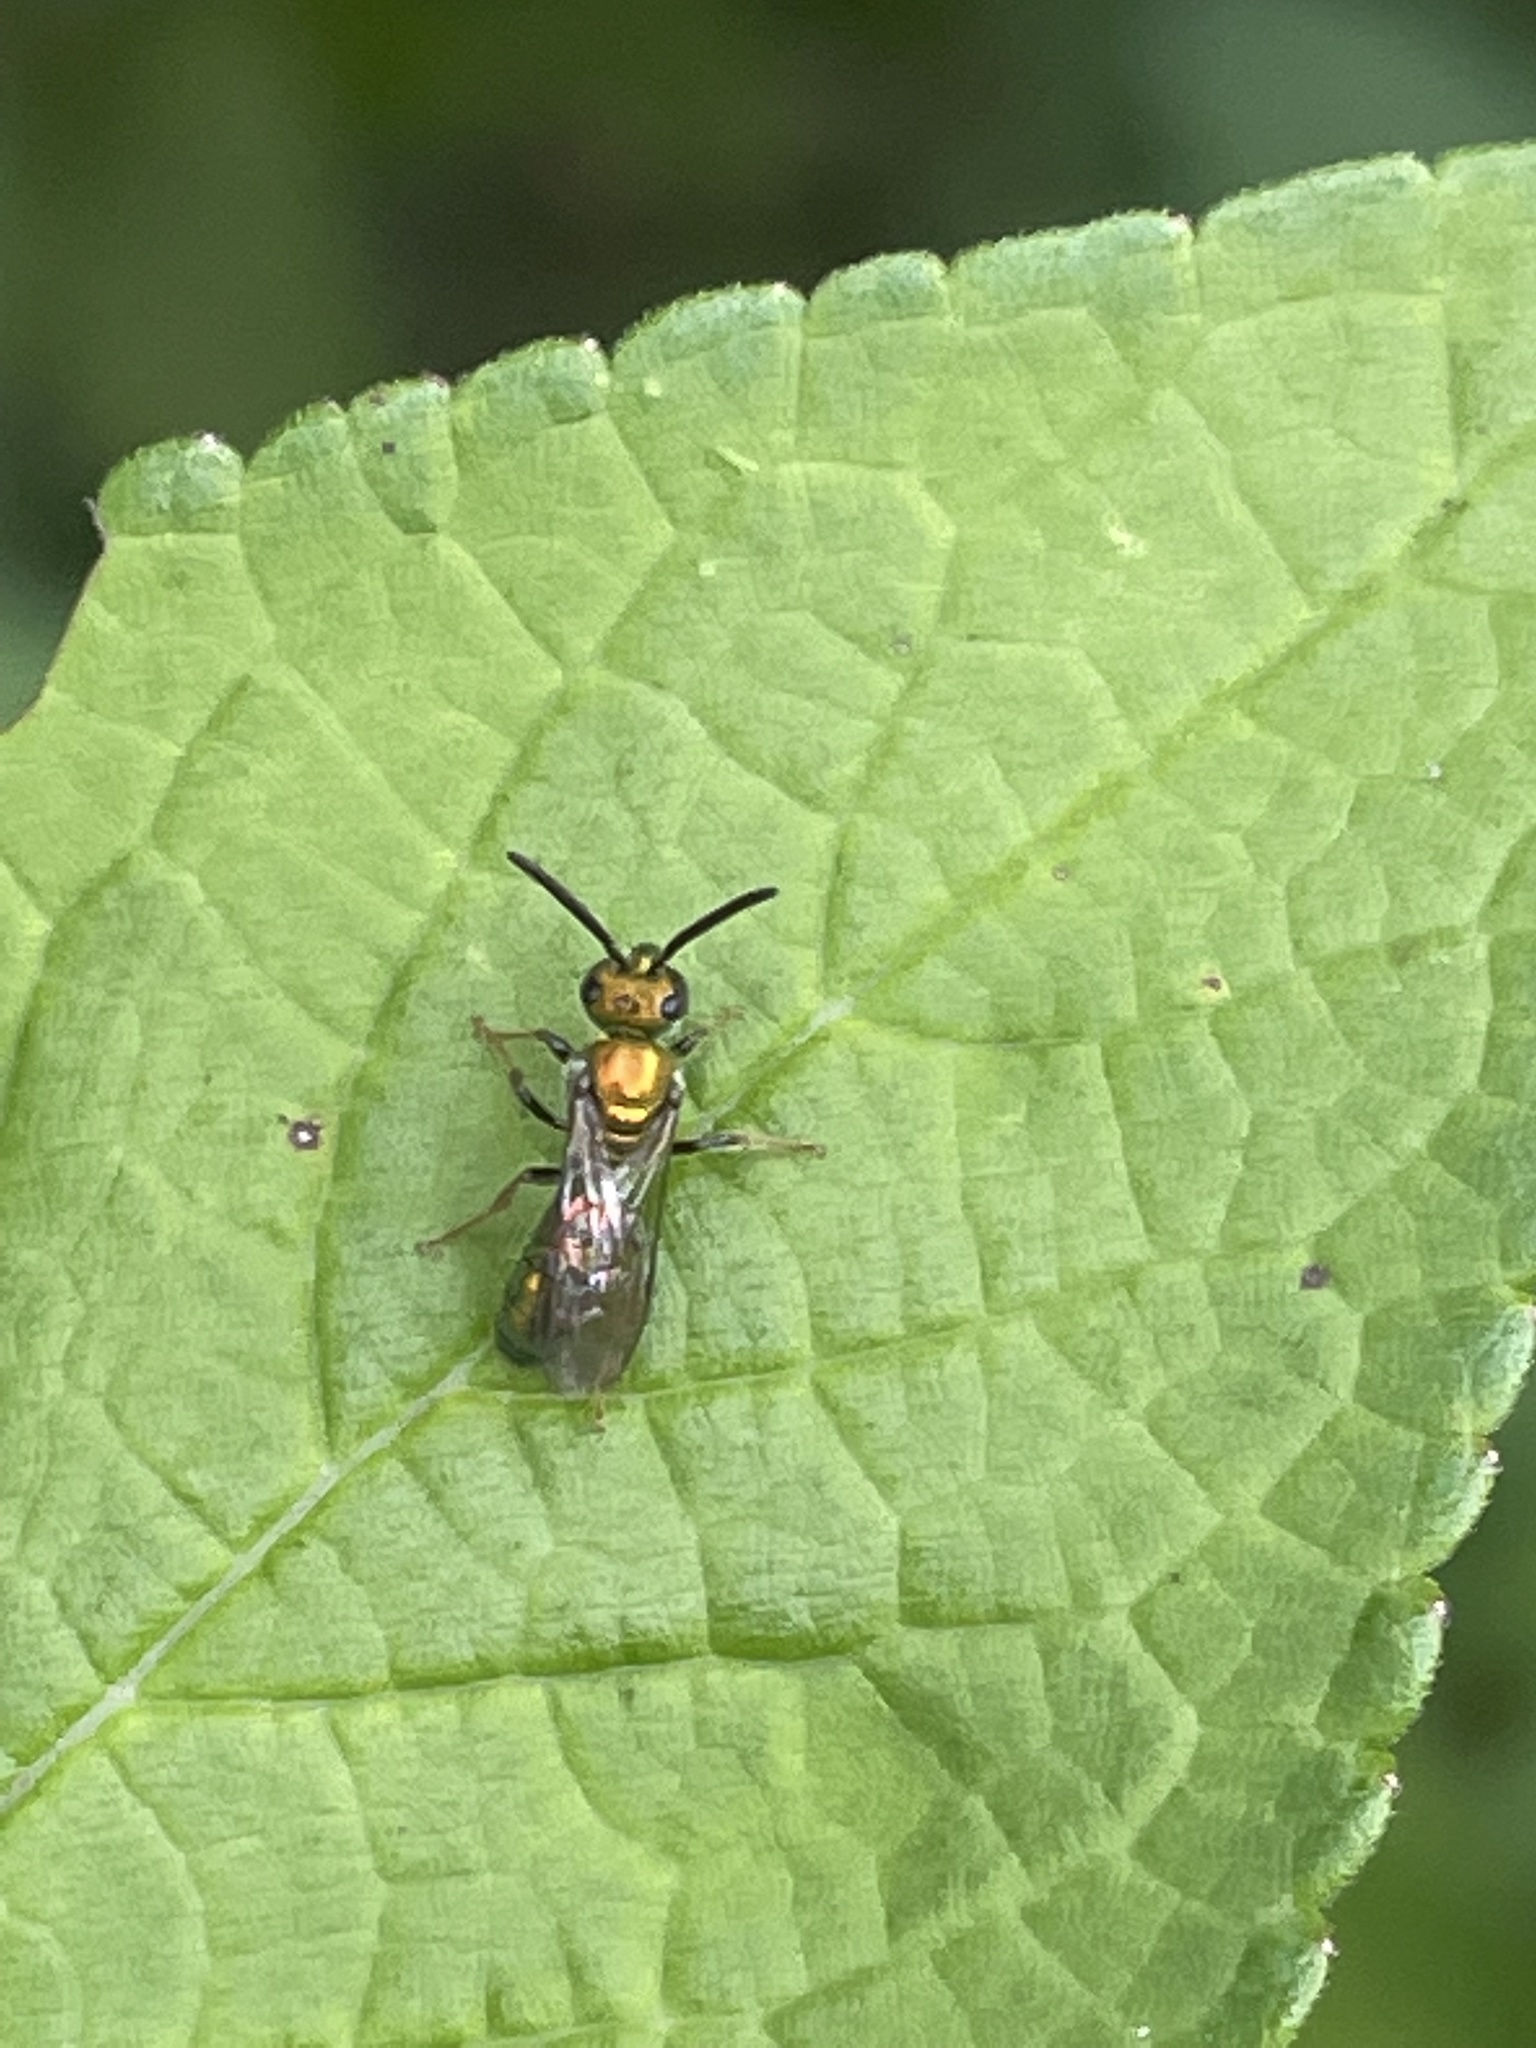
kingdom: Animalia
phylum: Arthropoda
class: Insecta
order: Hymenoptera
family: Halictidae
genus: Augochlora
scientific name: Augochlora pura
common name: Pure green sweat bee
